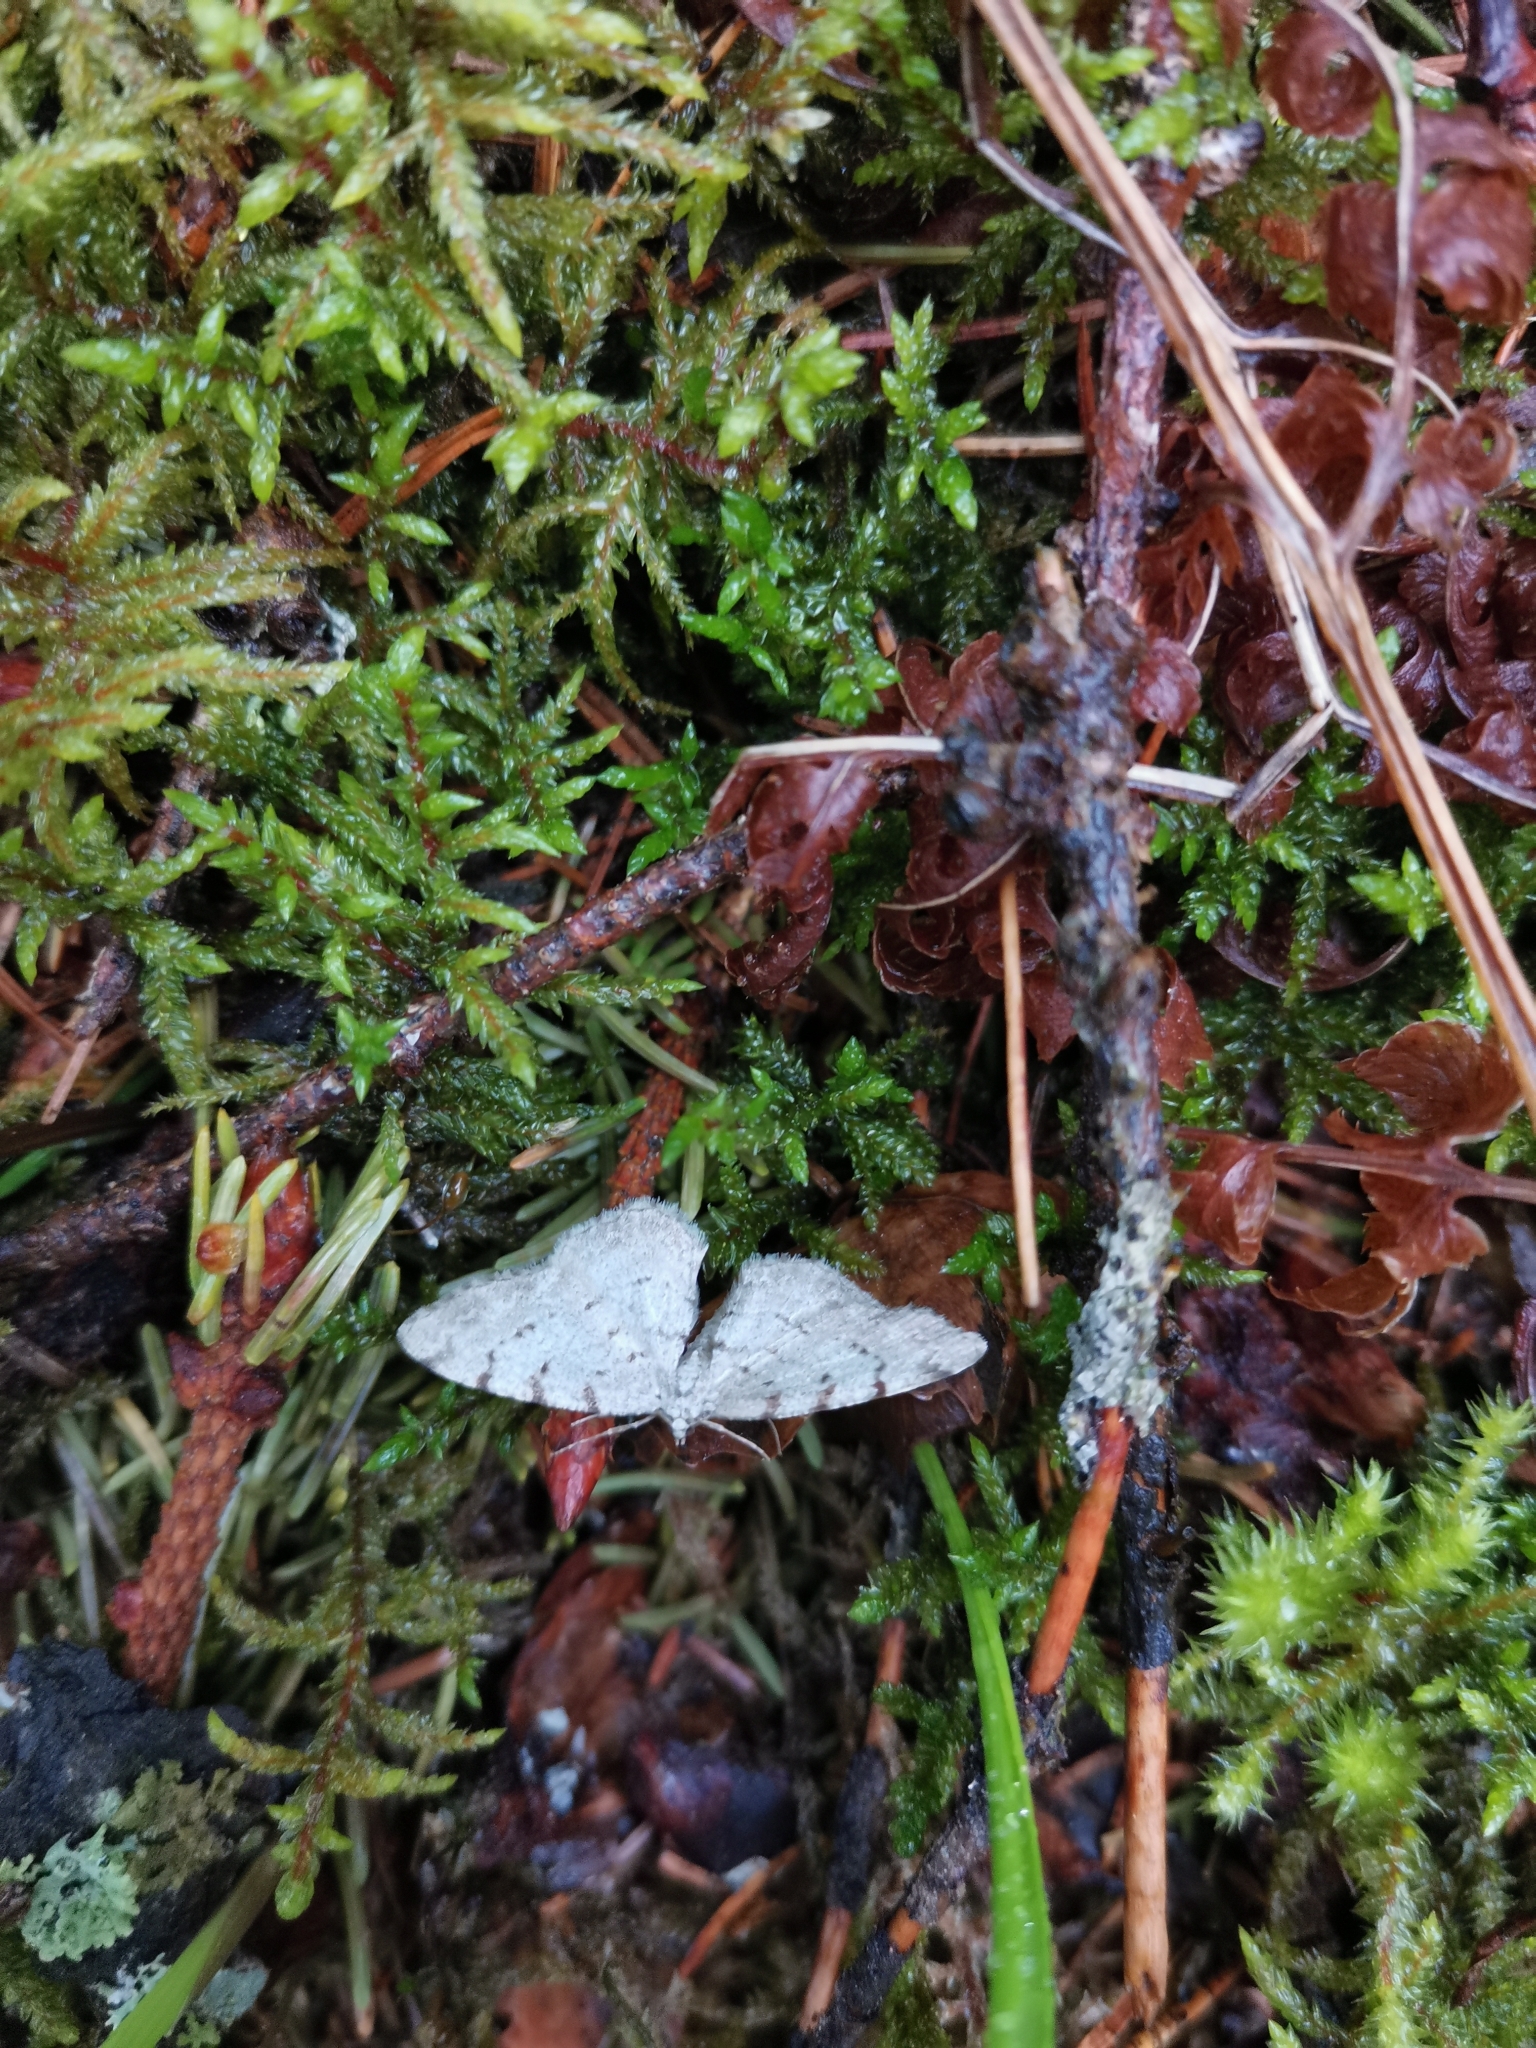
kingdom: Animalia
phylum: Arthropoda
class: Insecta
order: Lepidoptera
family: Geometridae
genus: Aethalura
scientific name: Aethalura punctulata
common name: Grey birch
